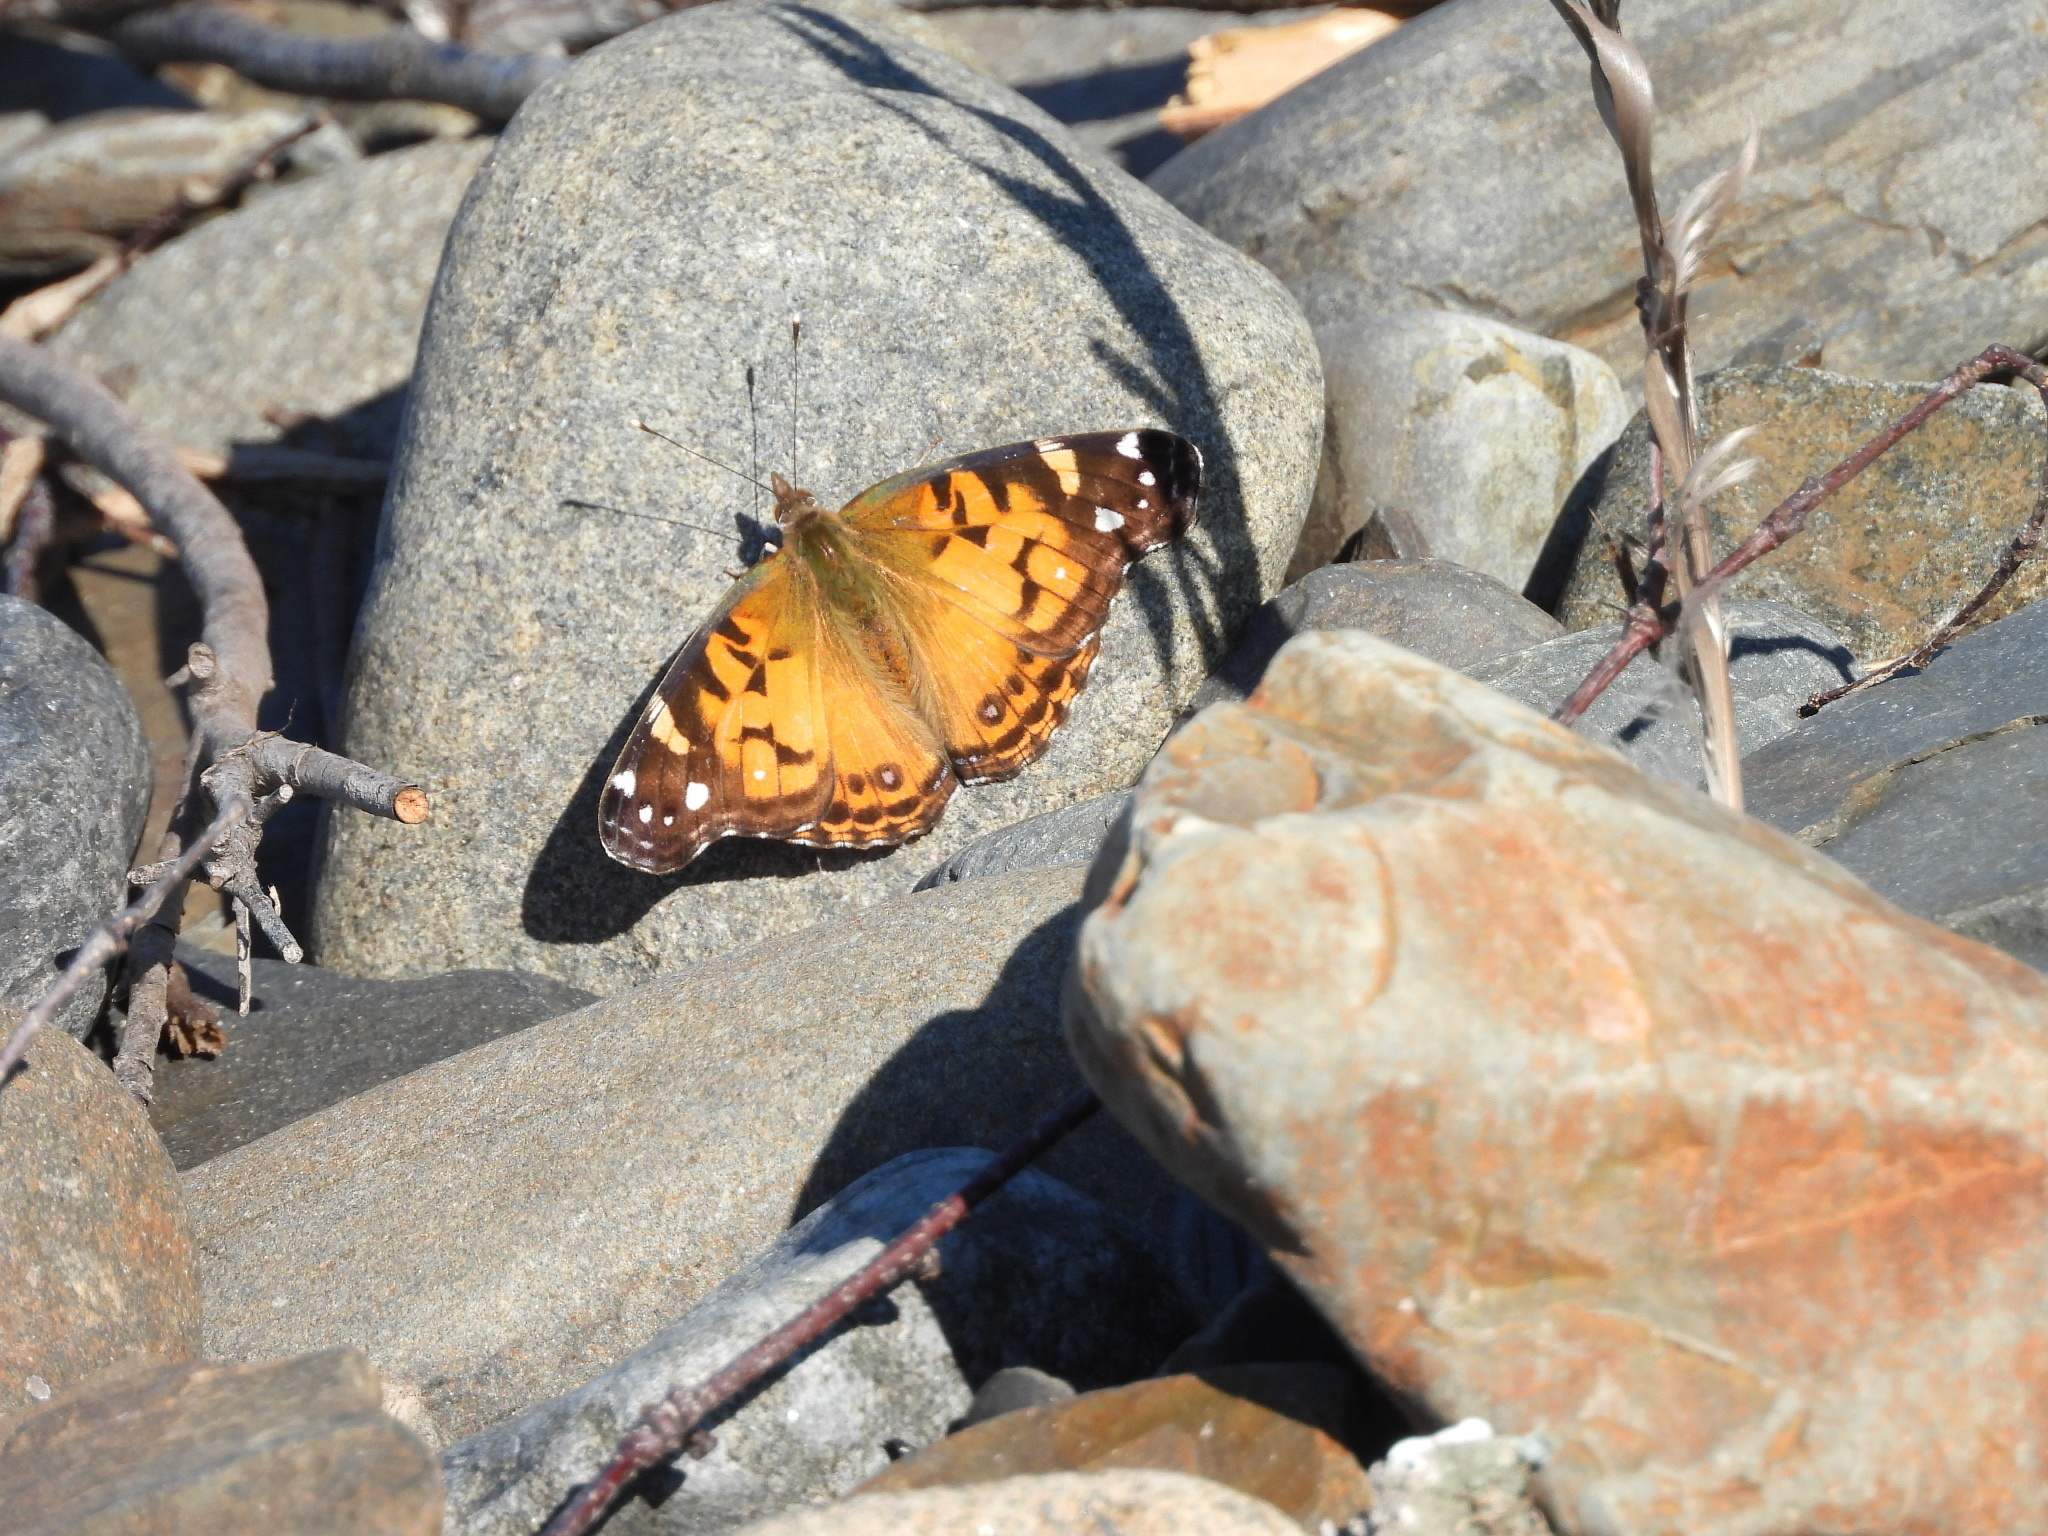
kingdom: Animalia
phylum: Arthropoda
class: Insecta
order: Lepidoptera
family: Nymphalidae
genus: Vanessa
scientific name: Vanessa virginiensis
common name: American lady
